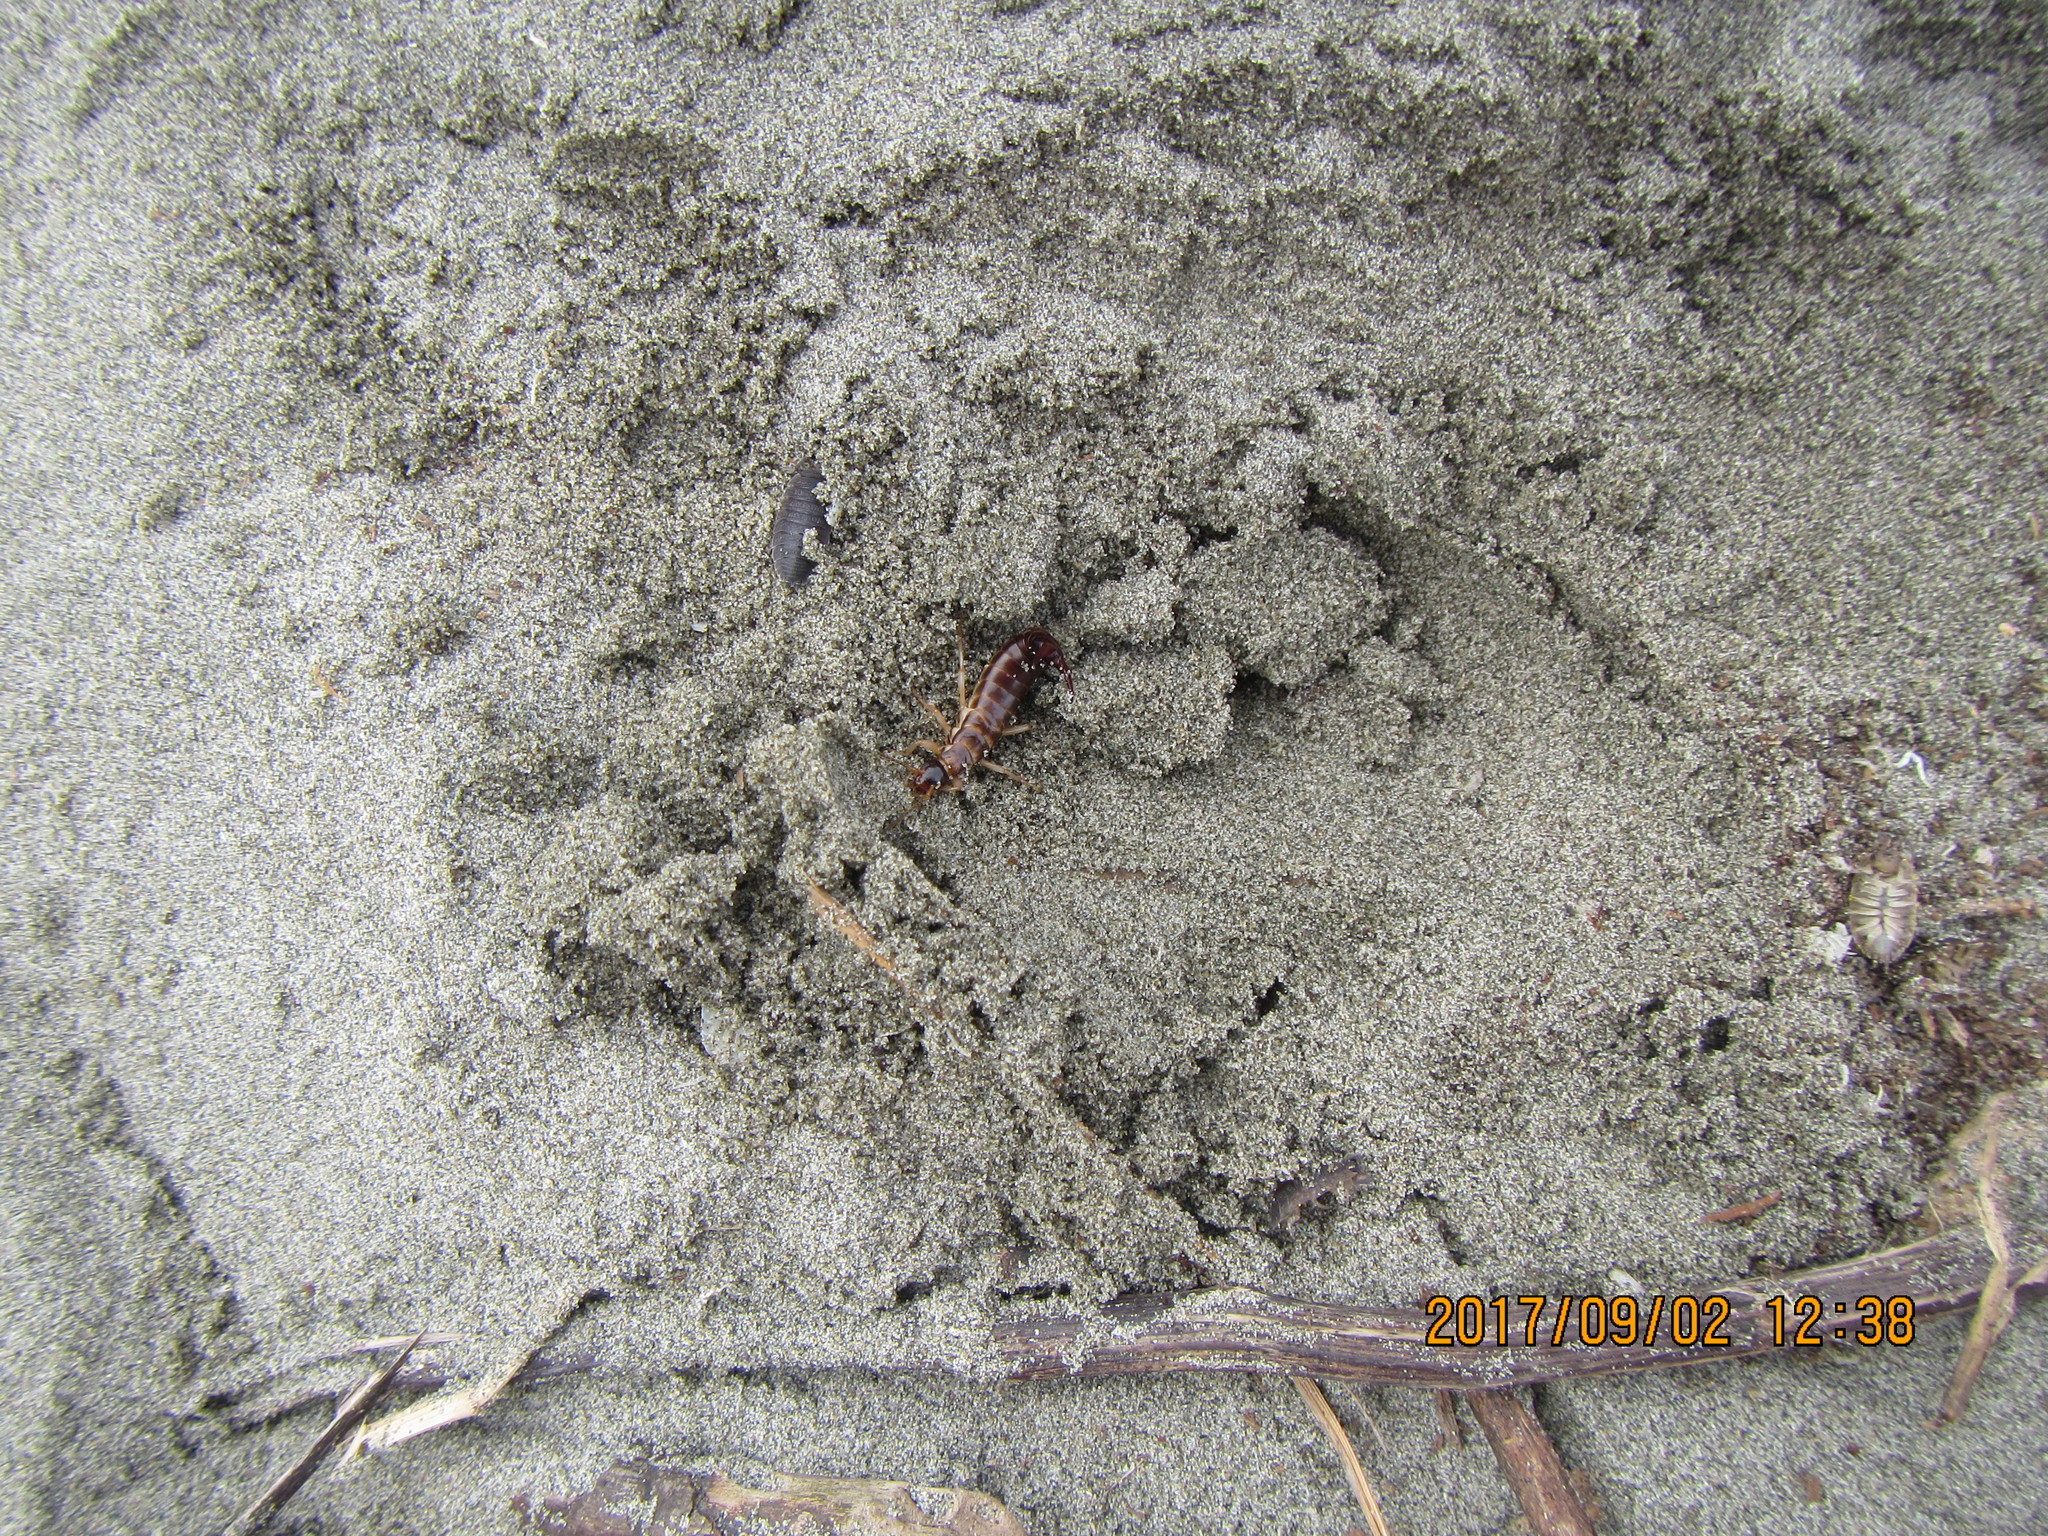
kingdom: Animalia
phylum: Arthropoda
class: Insecta
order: Dermaptera
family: Anisolabididae
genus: Anisolabis
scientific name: Anisolabis littorea
